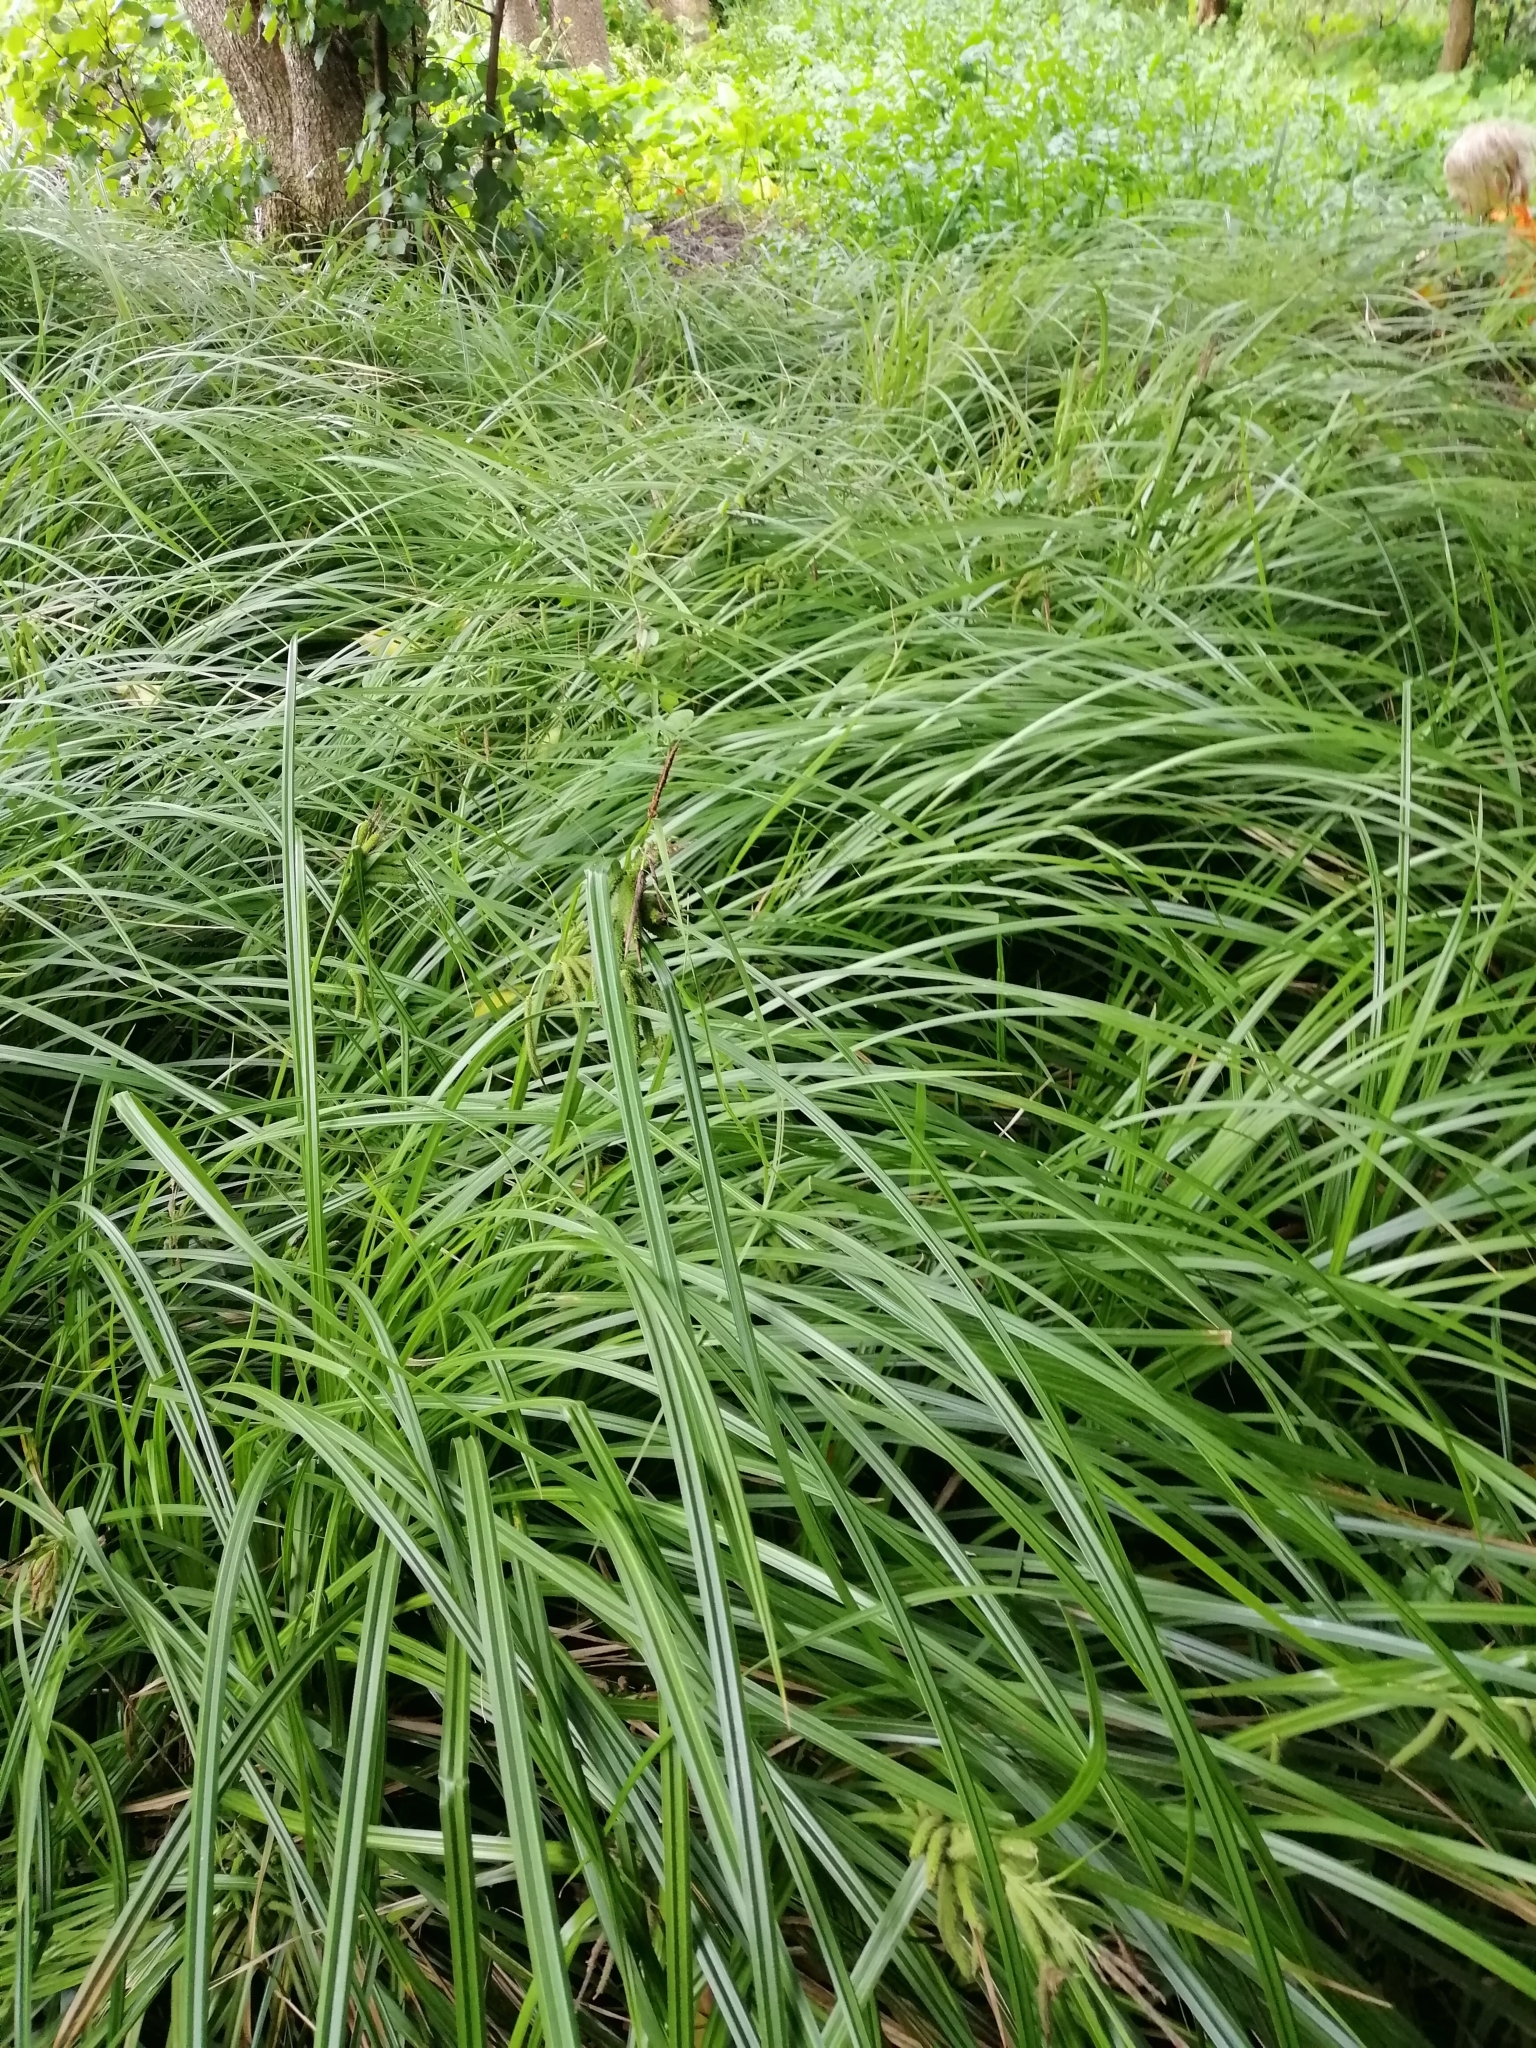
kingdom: Plantae
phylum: Tracheophyta
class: Liliopsida
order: Poales
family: Cyperaceae
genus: Carex
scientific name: Carex geminata
